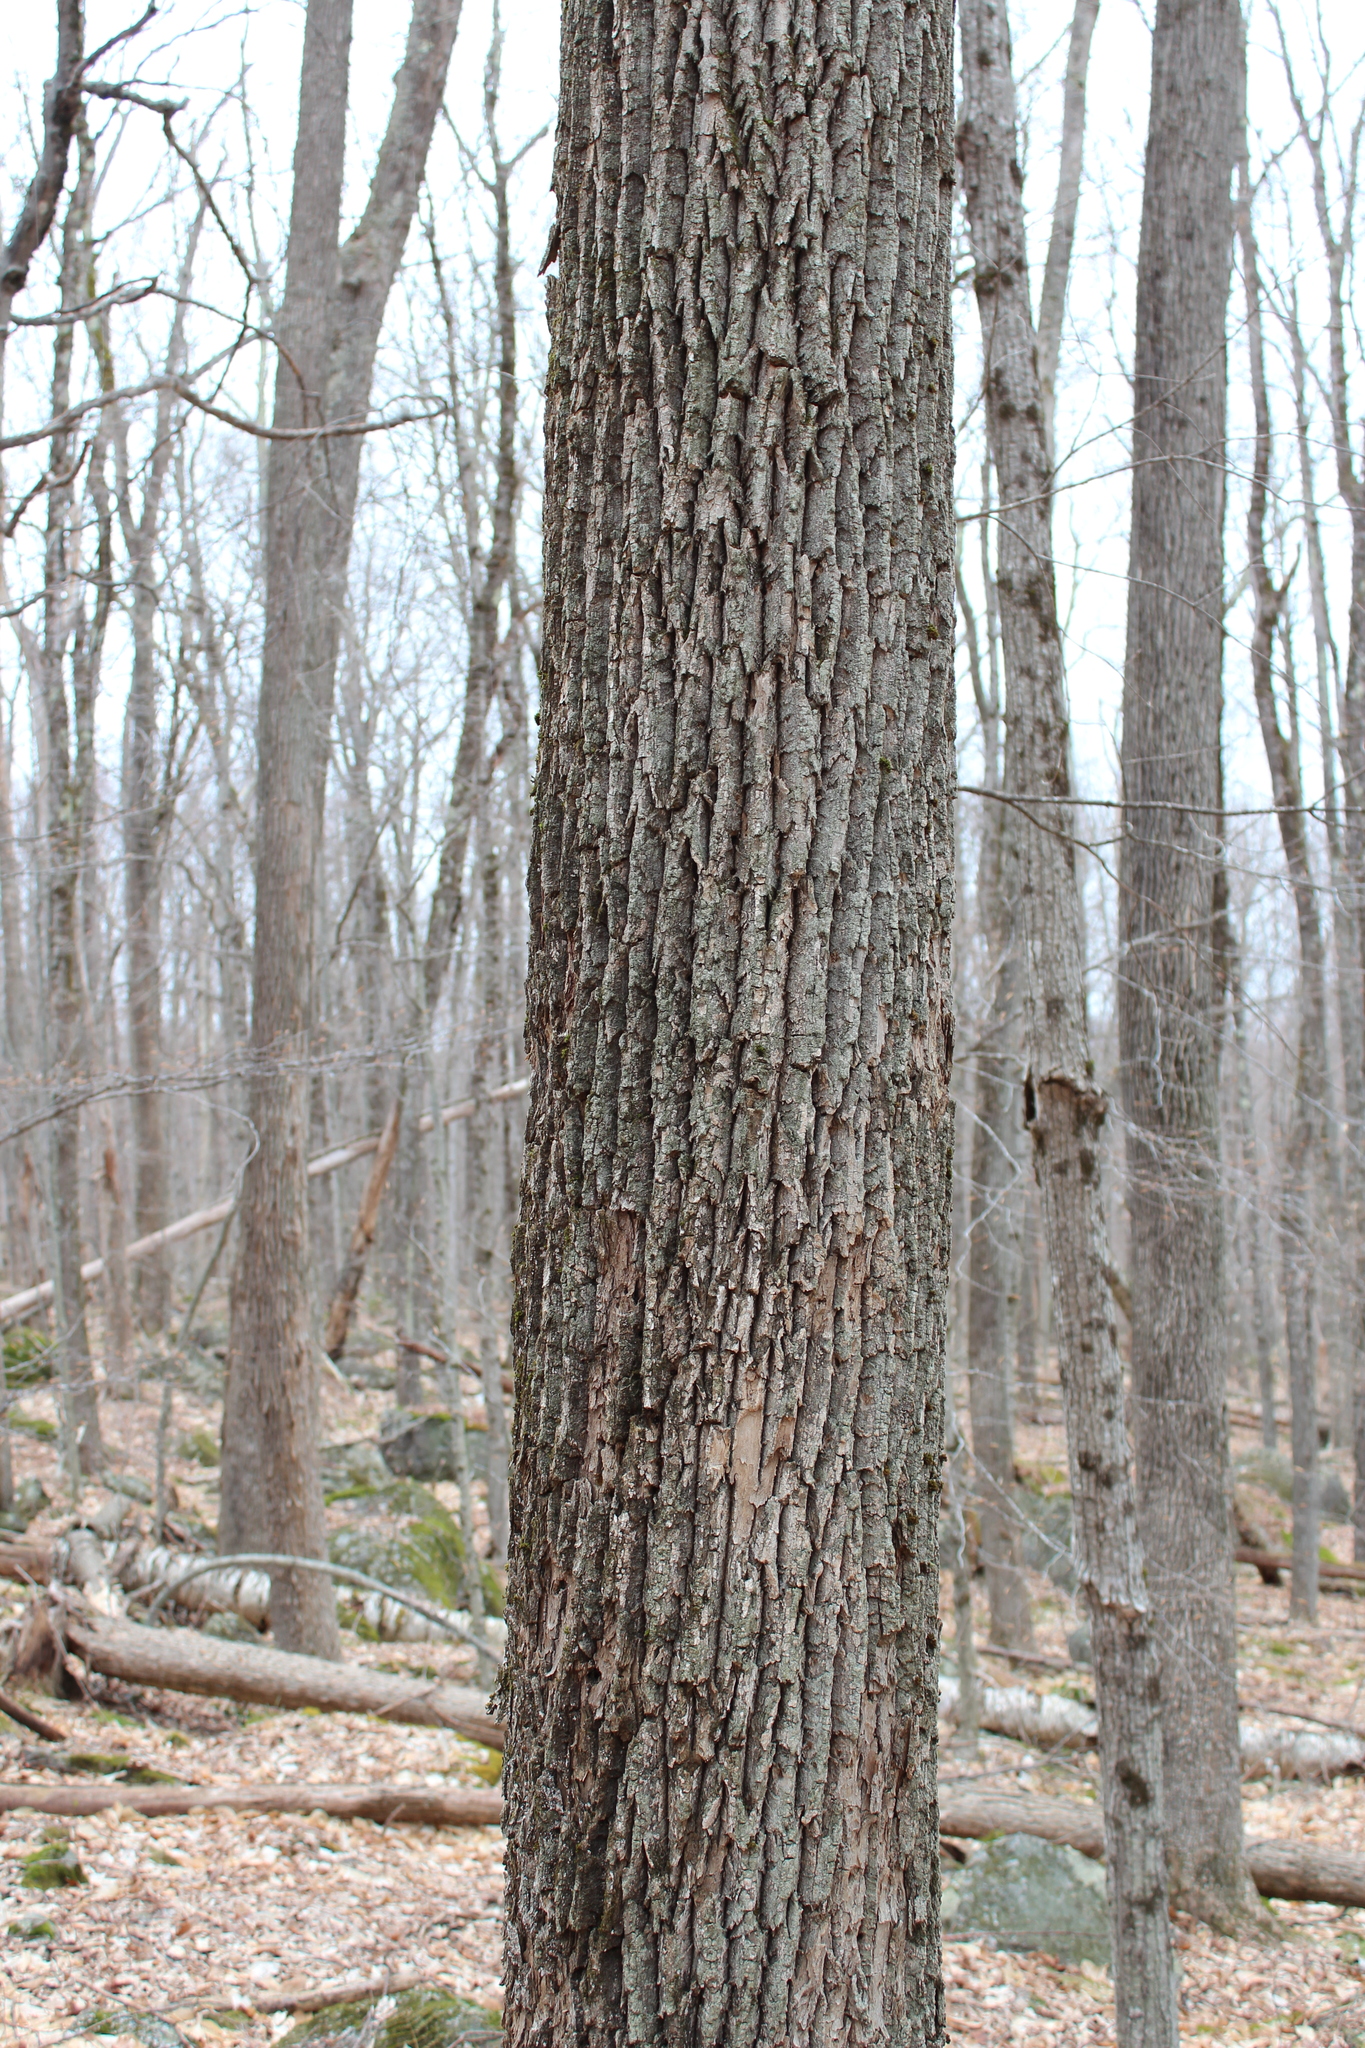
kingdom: Plantae
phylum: Tracheophyta
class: Magnoliopsida
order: Lamiales
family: Oleaceae
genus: Fraxinus
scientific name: Fraxinus americana
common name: White ash
